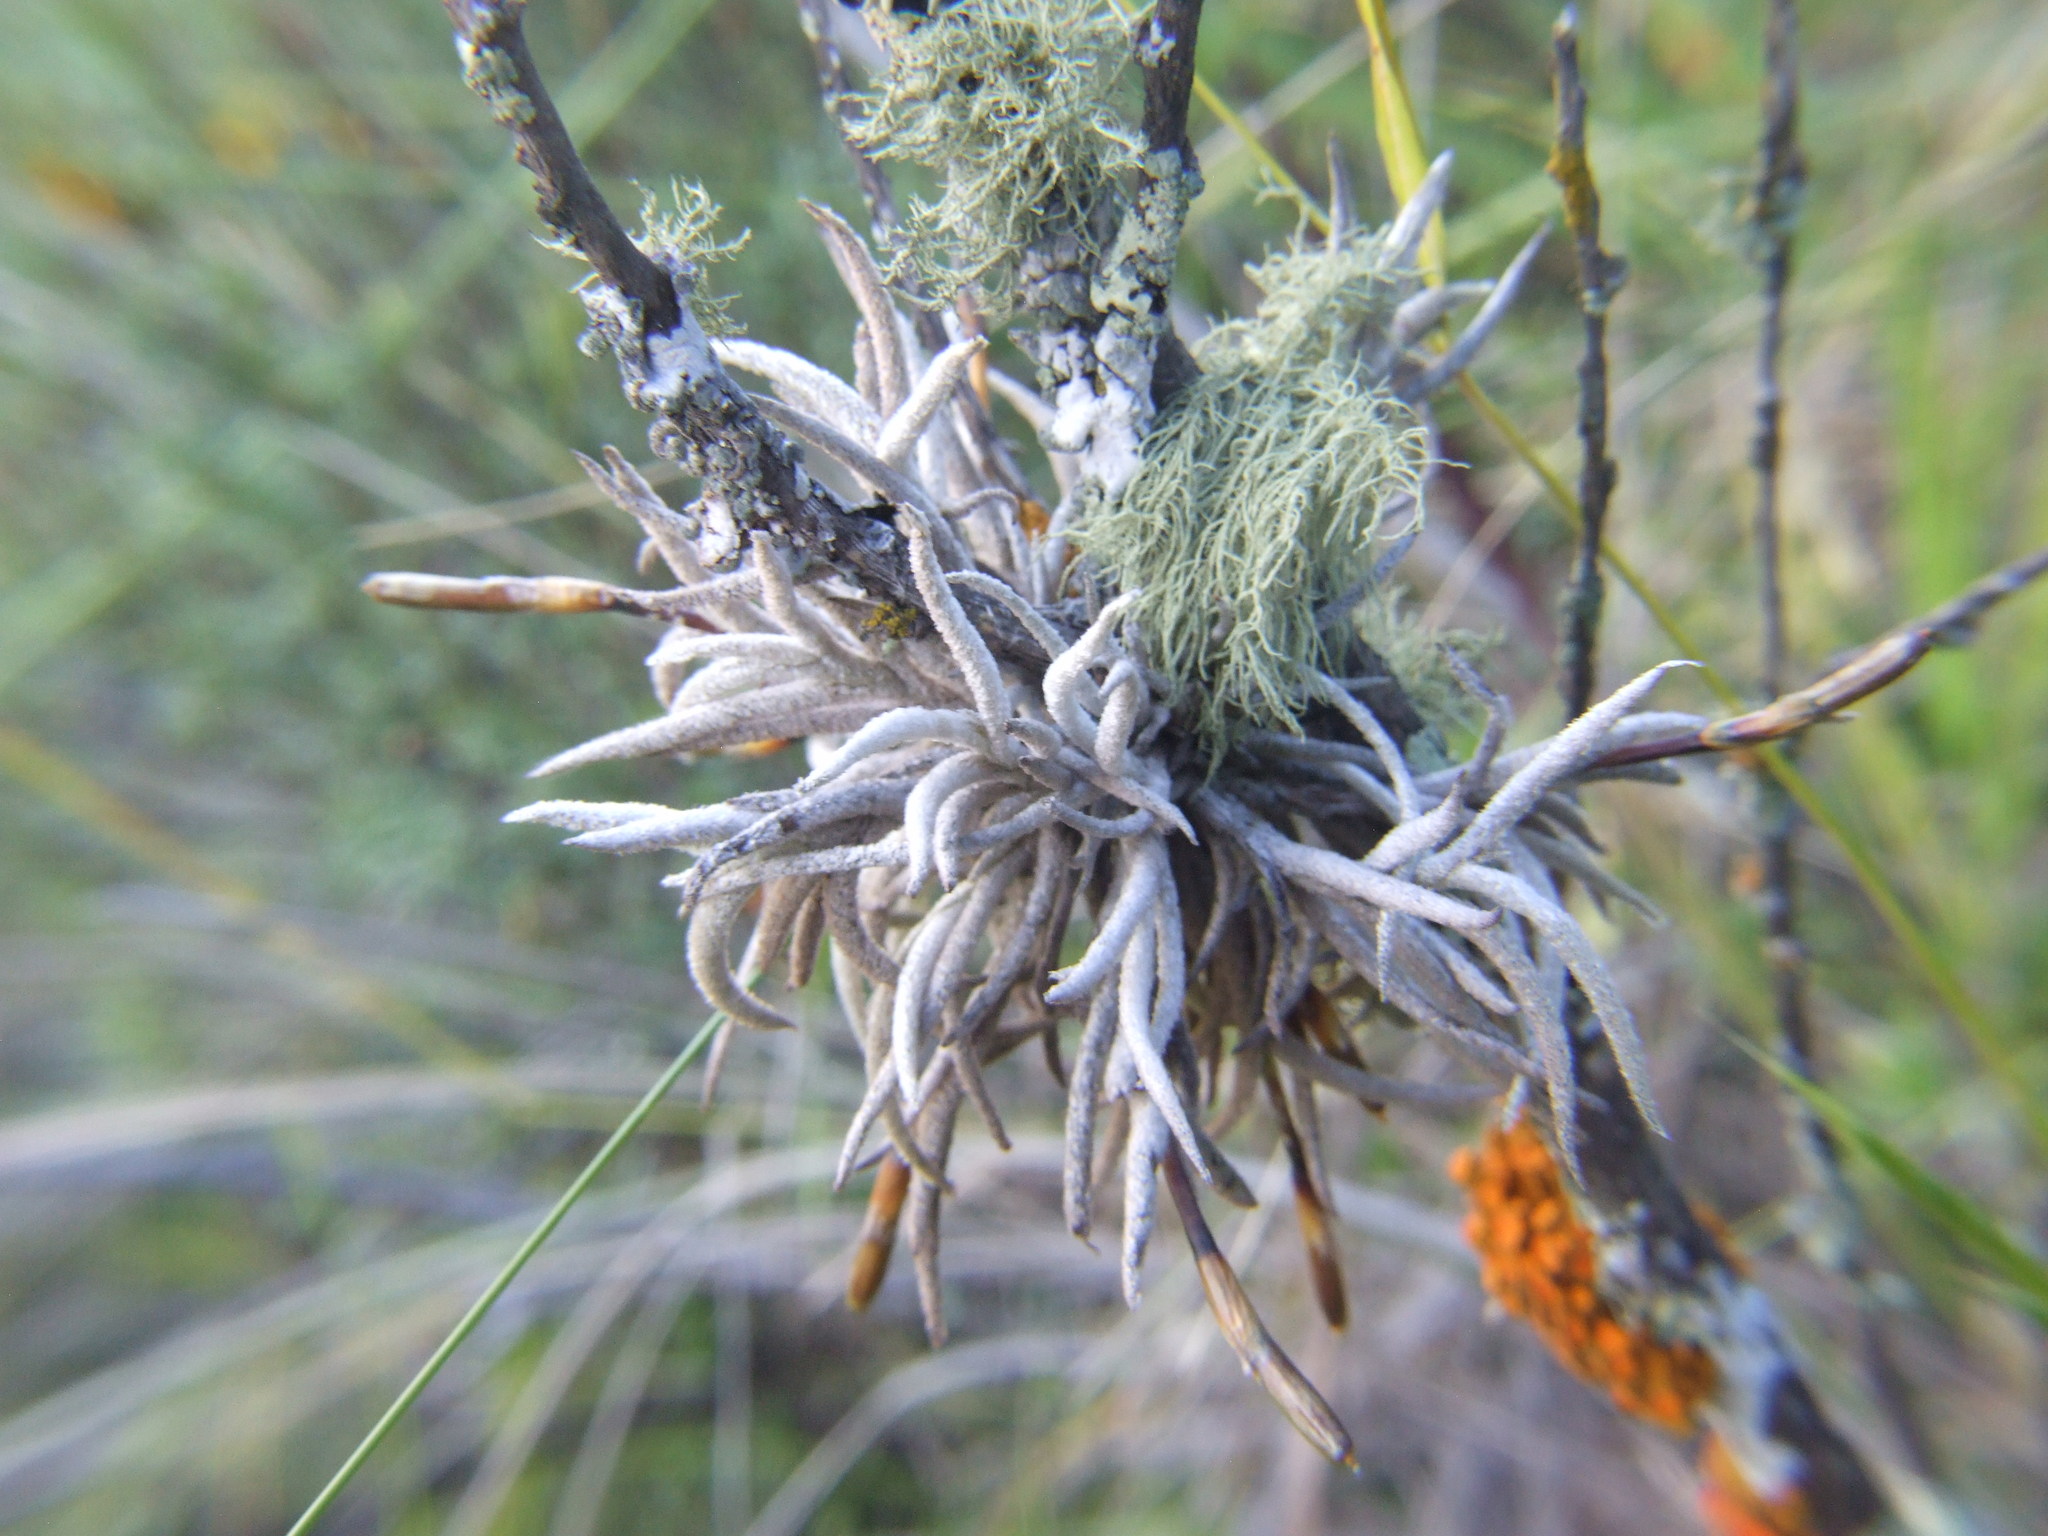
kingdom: Plantae
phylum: Tracheophyta
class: Liliopsida
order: Poales
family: Bromeliaceae
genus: Tillandsia
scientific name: Tillandsia capillaris
